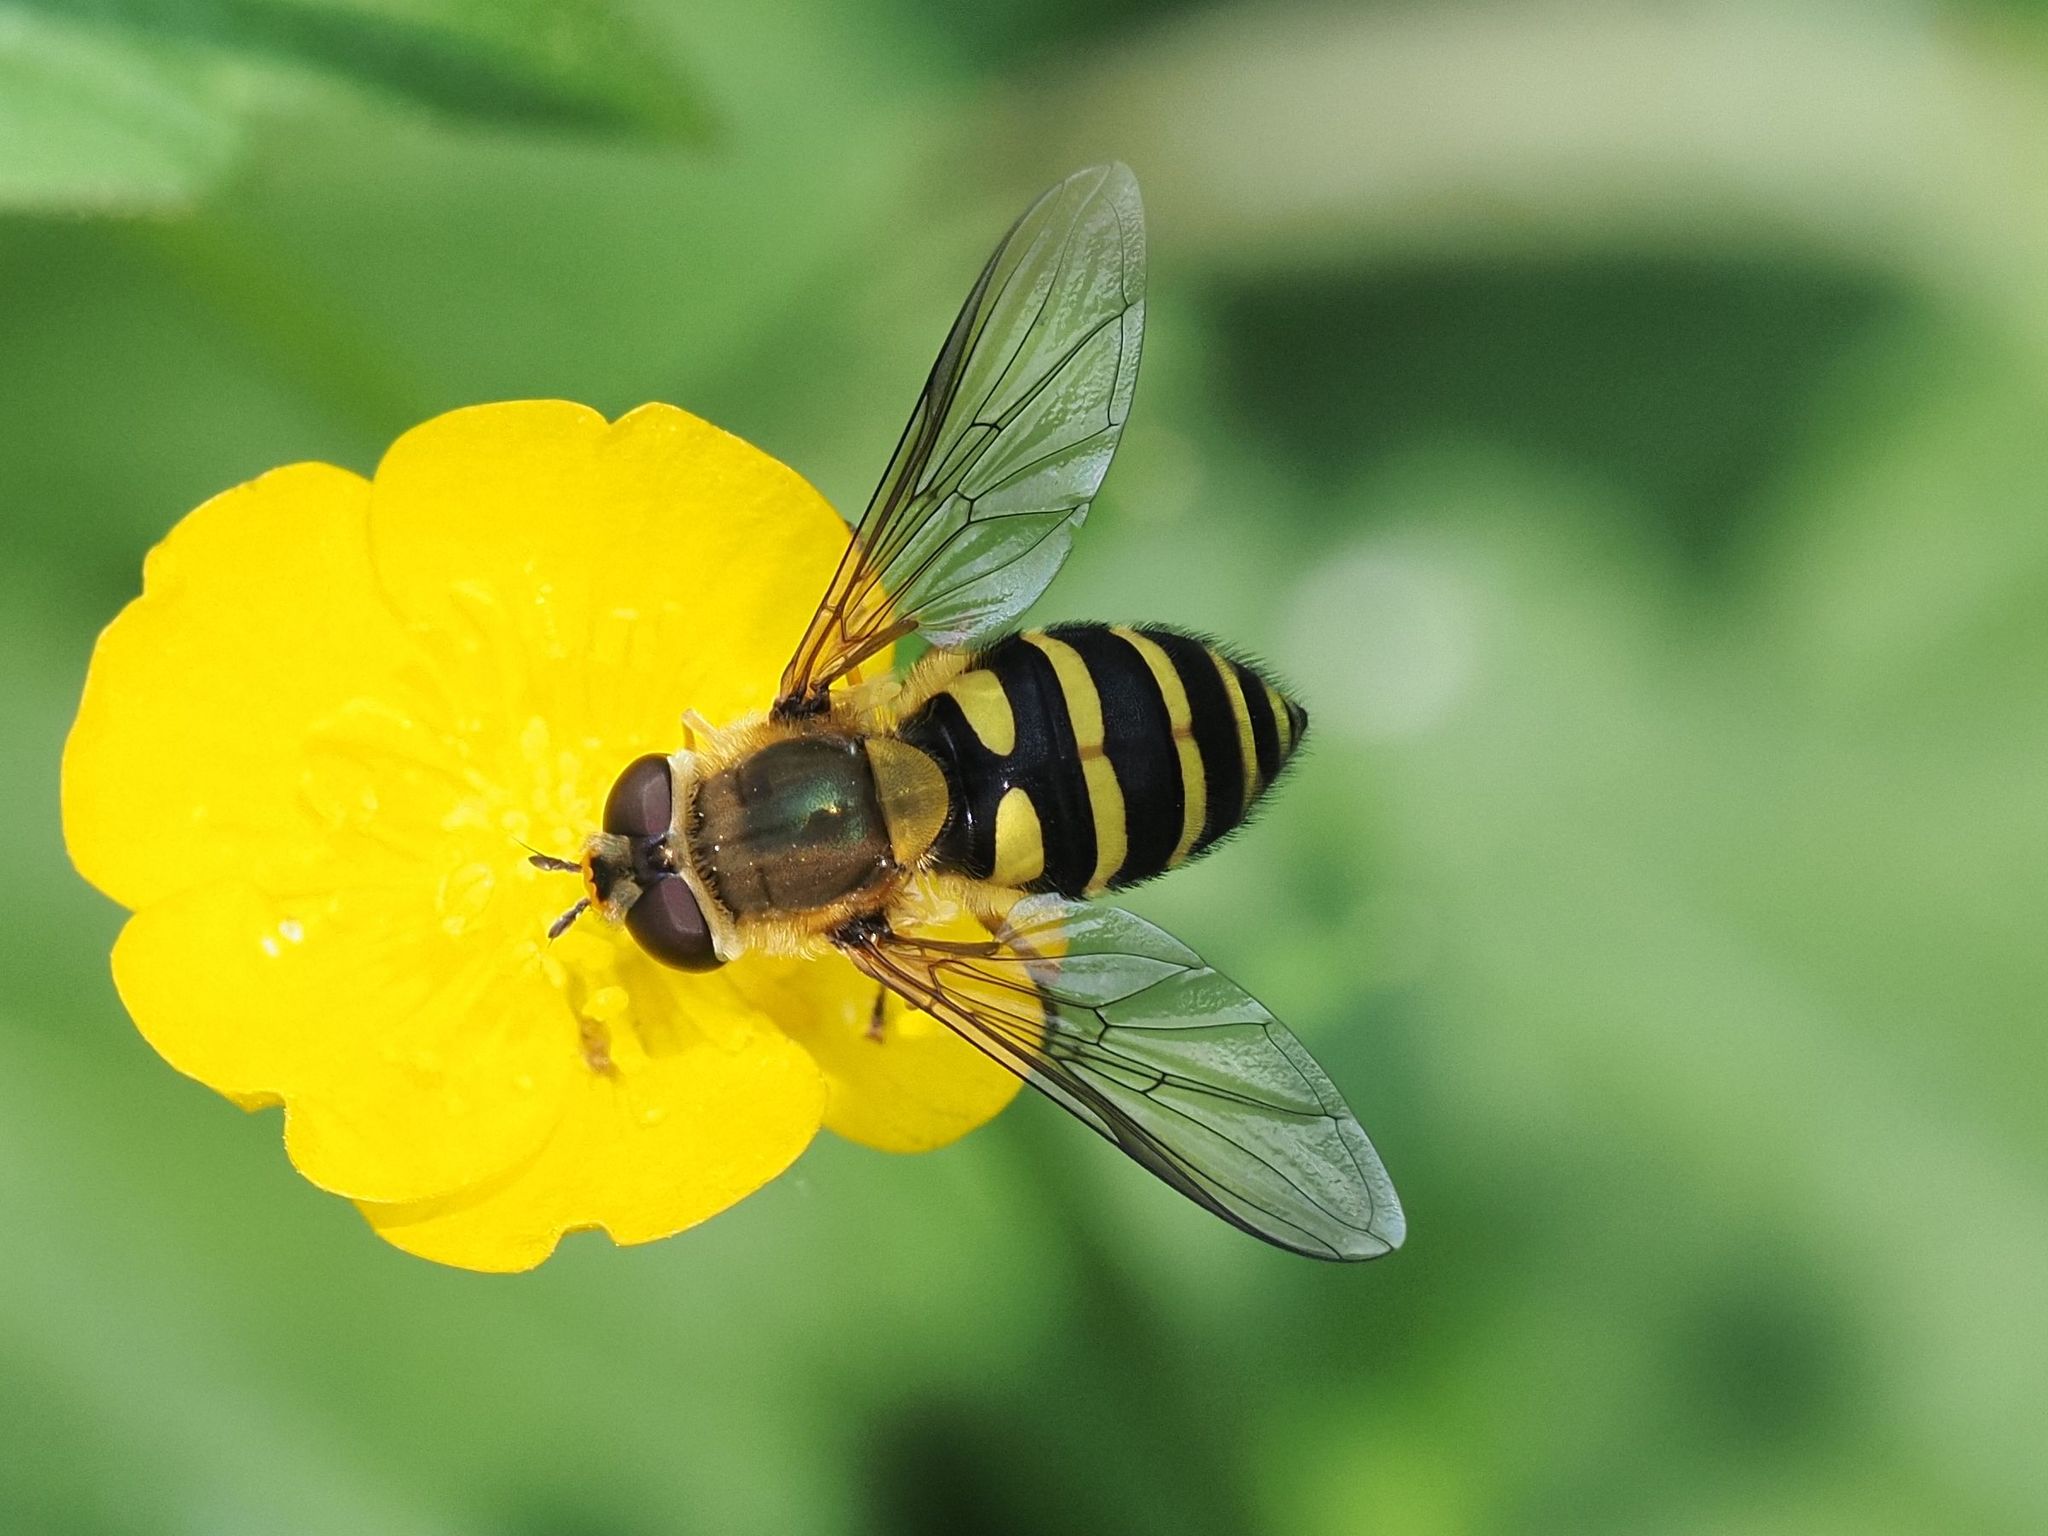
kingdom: Animalia
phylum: Arthropoda
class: Insecta
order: Diptera
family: Syrphidae
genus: Syrphus
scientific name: Syrphus
